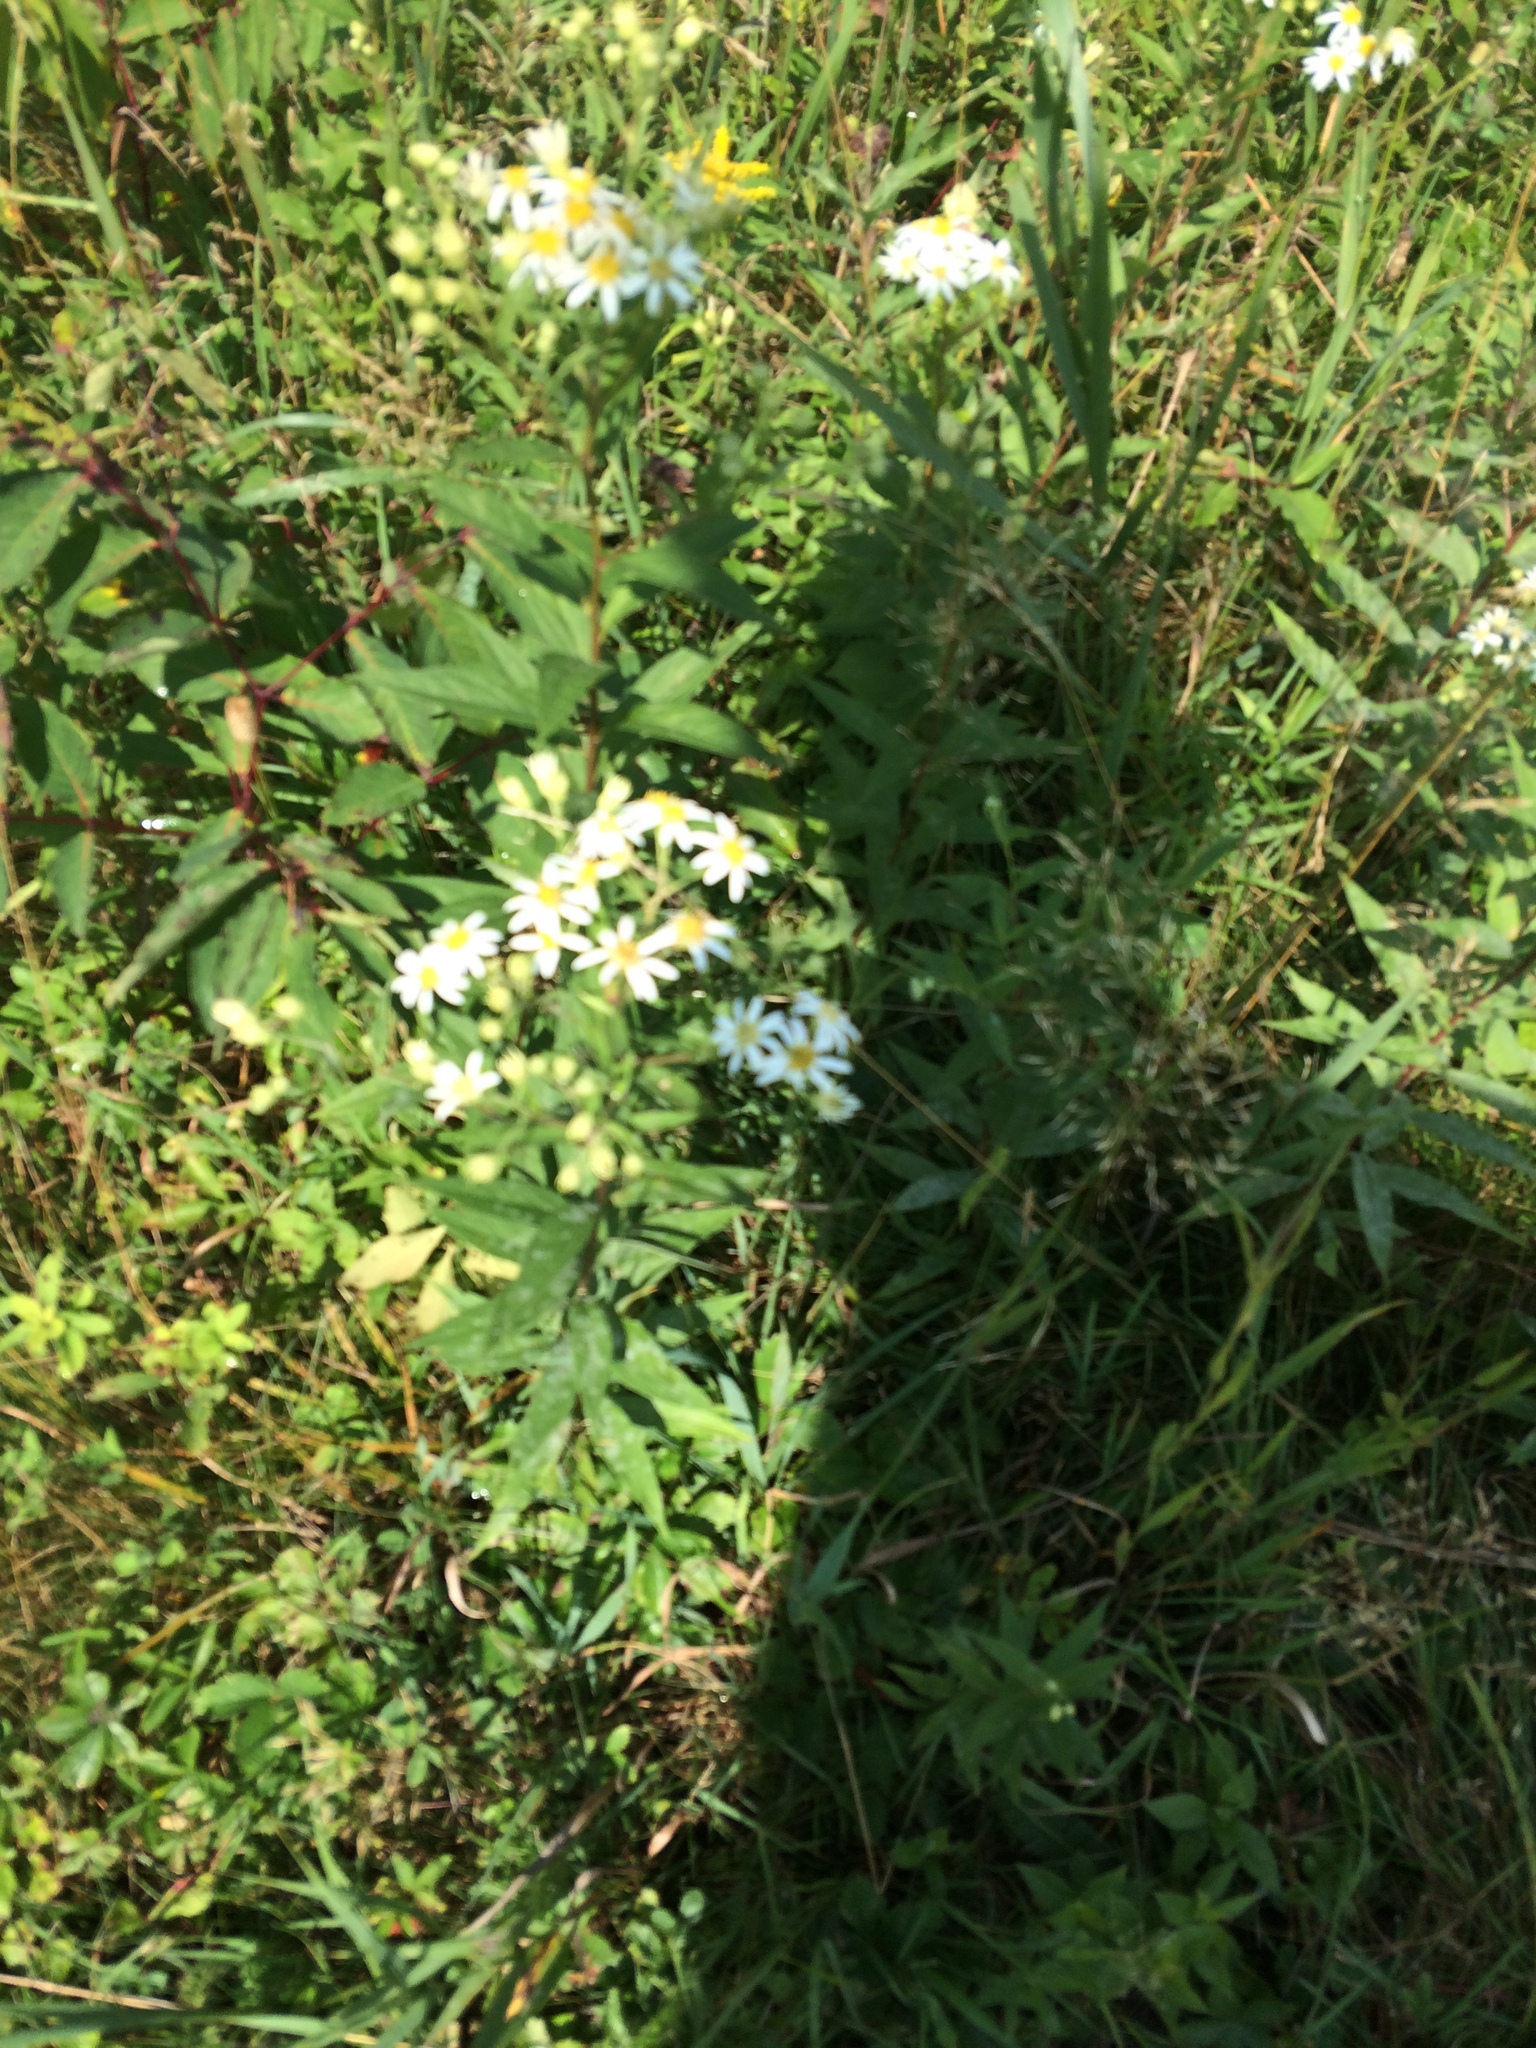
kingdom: Plantae
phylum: Tracheophyta
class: Magnoliopsida
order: Asterales
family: Asteraceae
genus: Doellingeria
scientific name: Doellingeria umbellata
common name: Flat-top white aster
